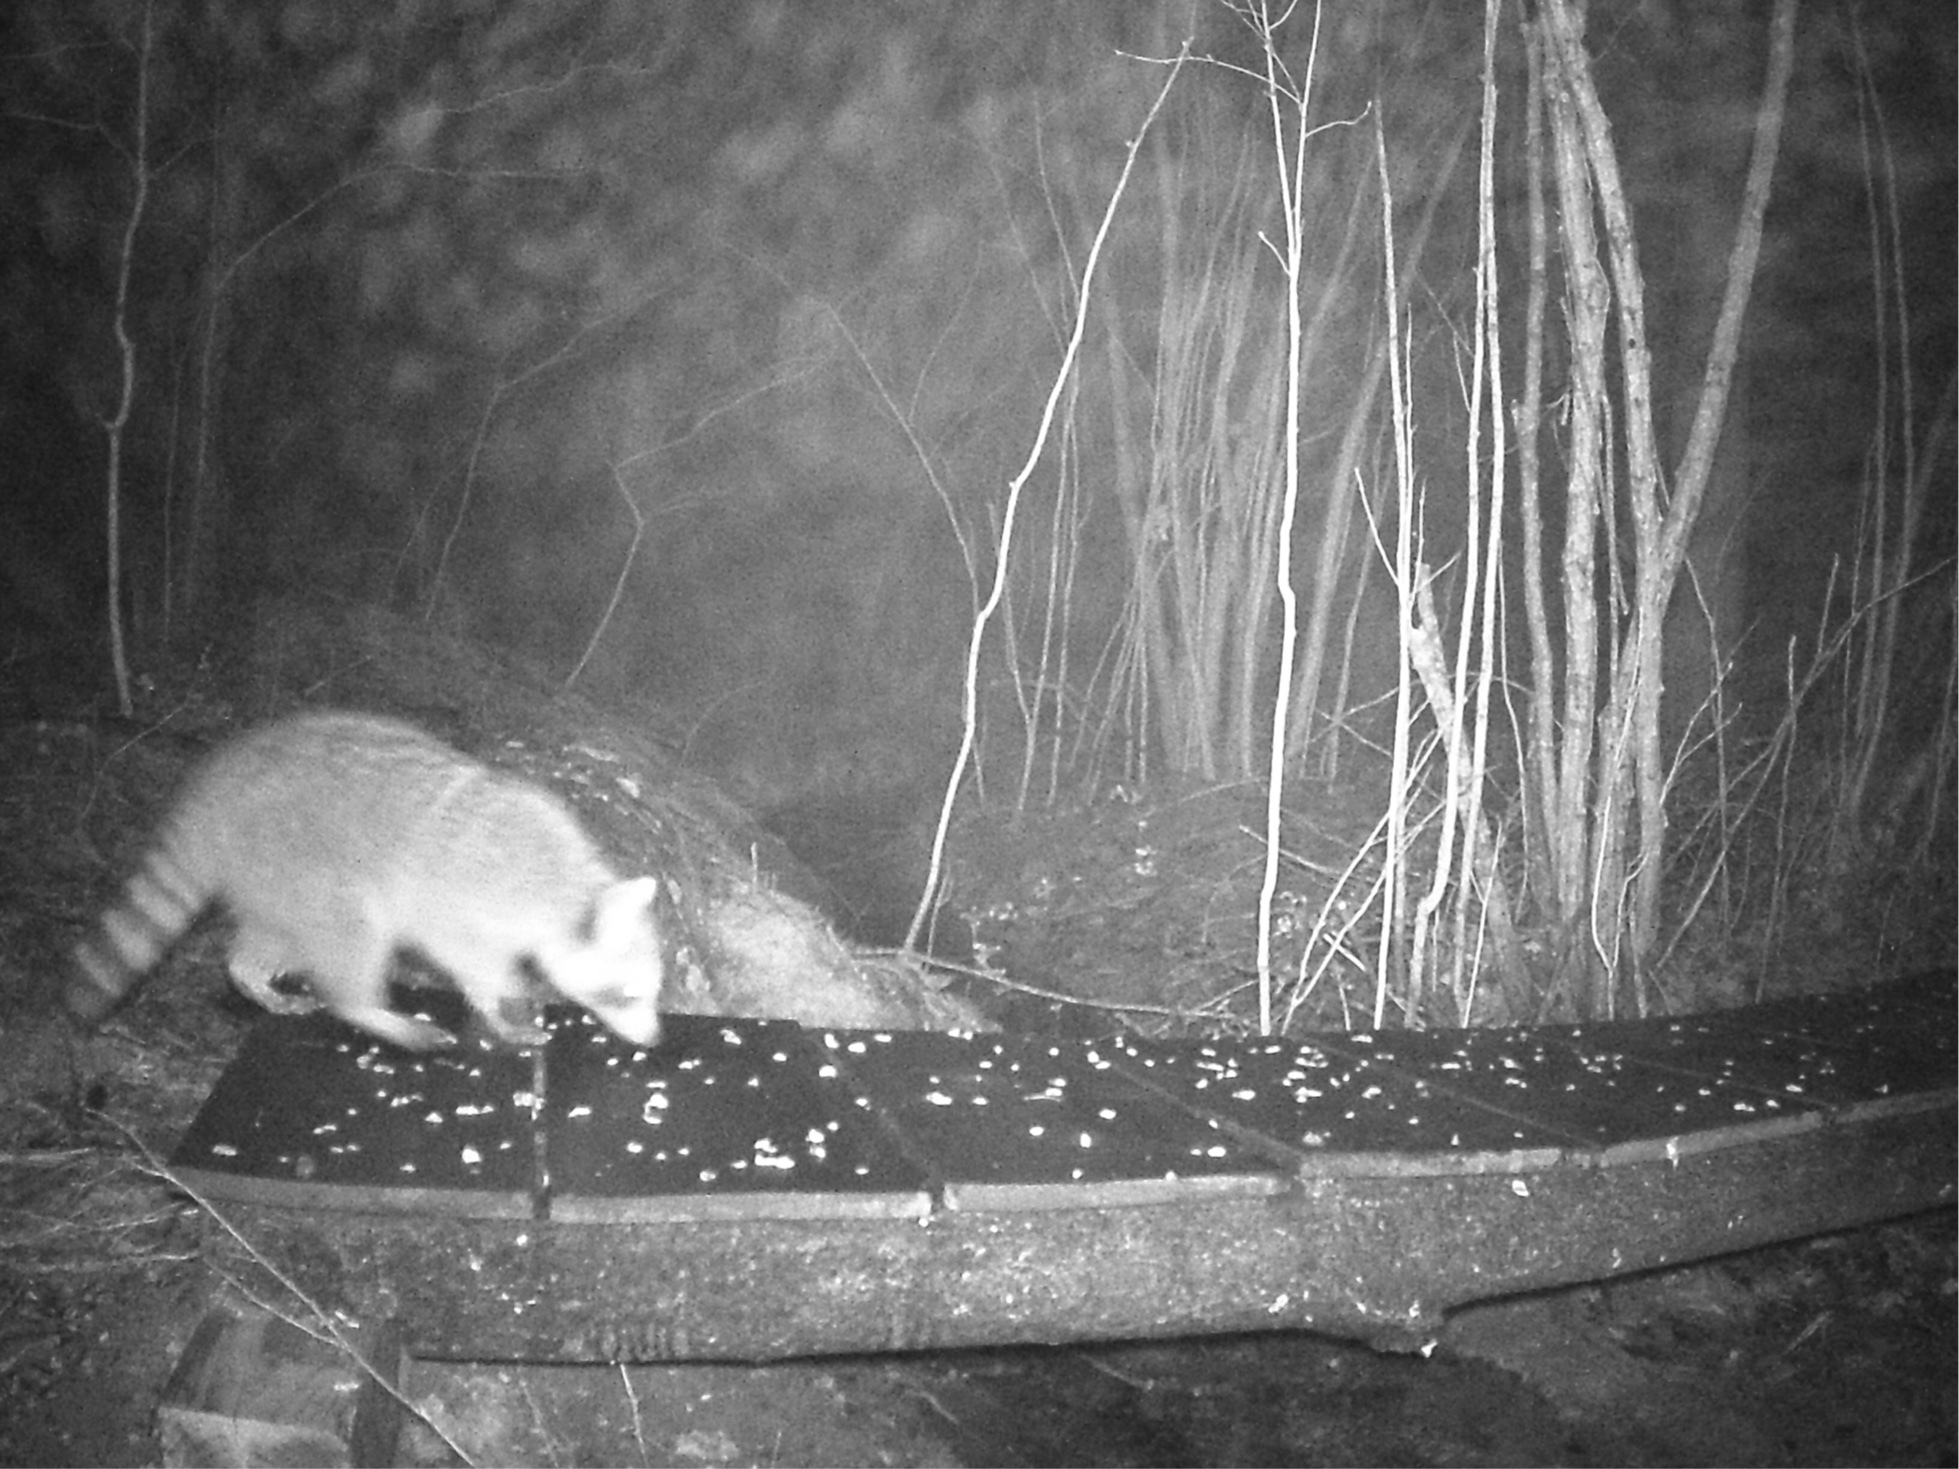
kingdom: Animalia
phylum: Chordata
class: Mammalia
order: Carnivora
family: Procyonidae
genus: Procyon
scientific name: Procyon lotor
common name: Raccoon
